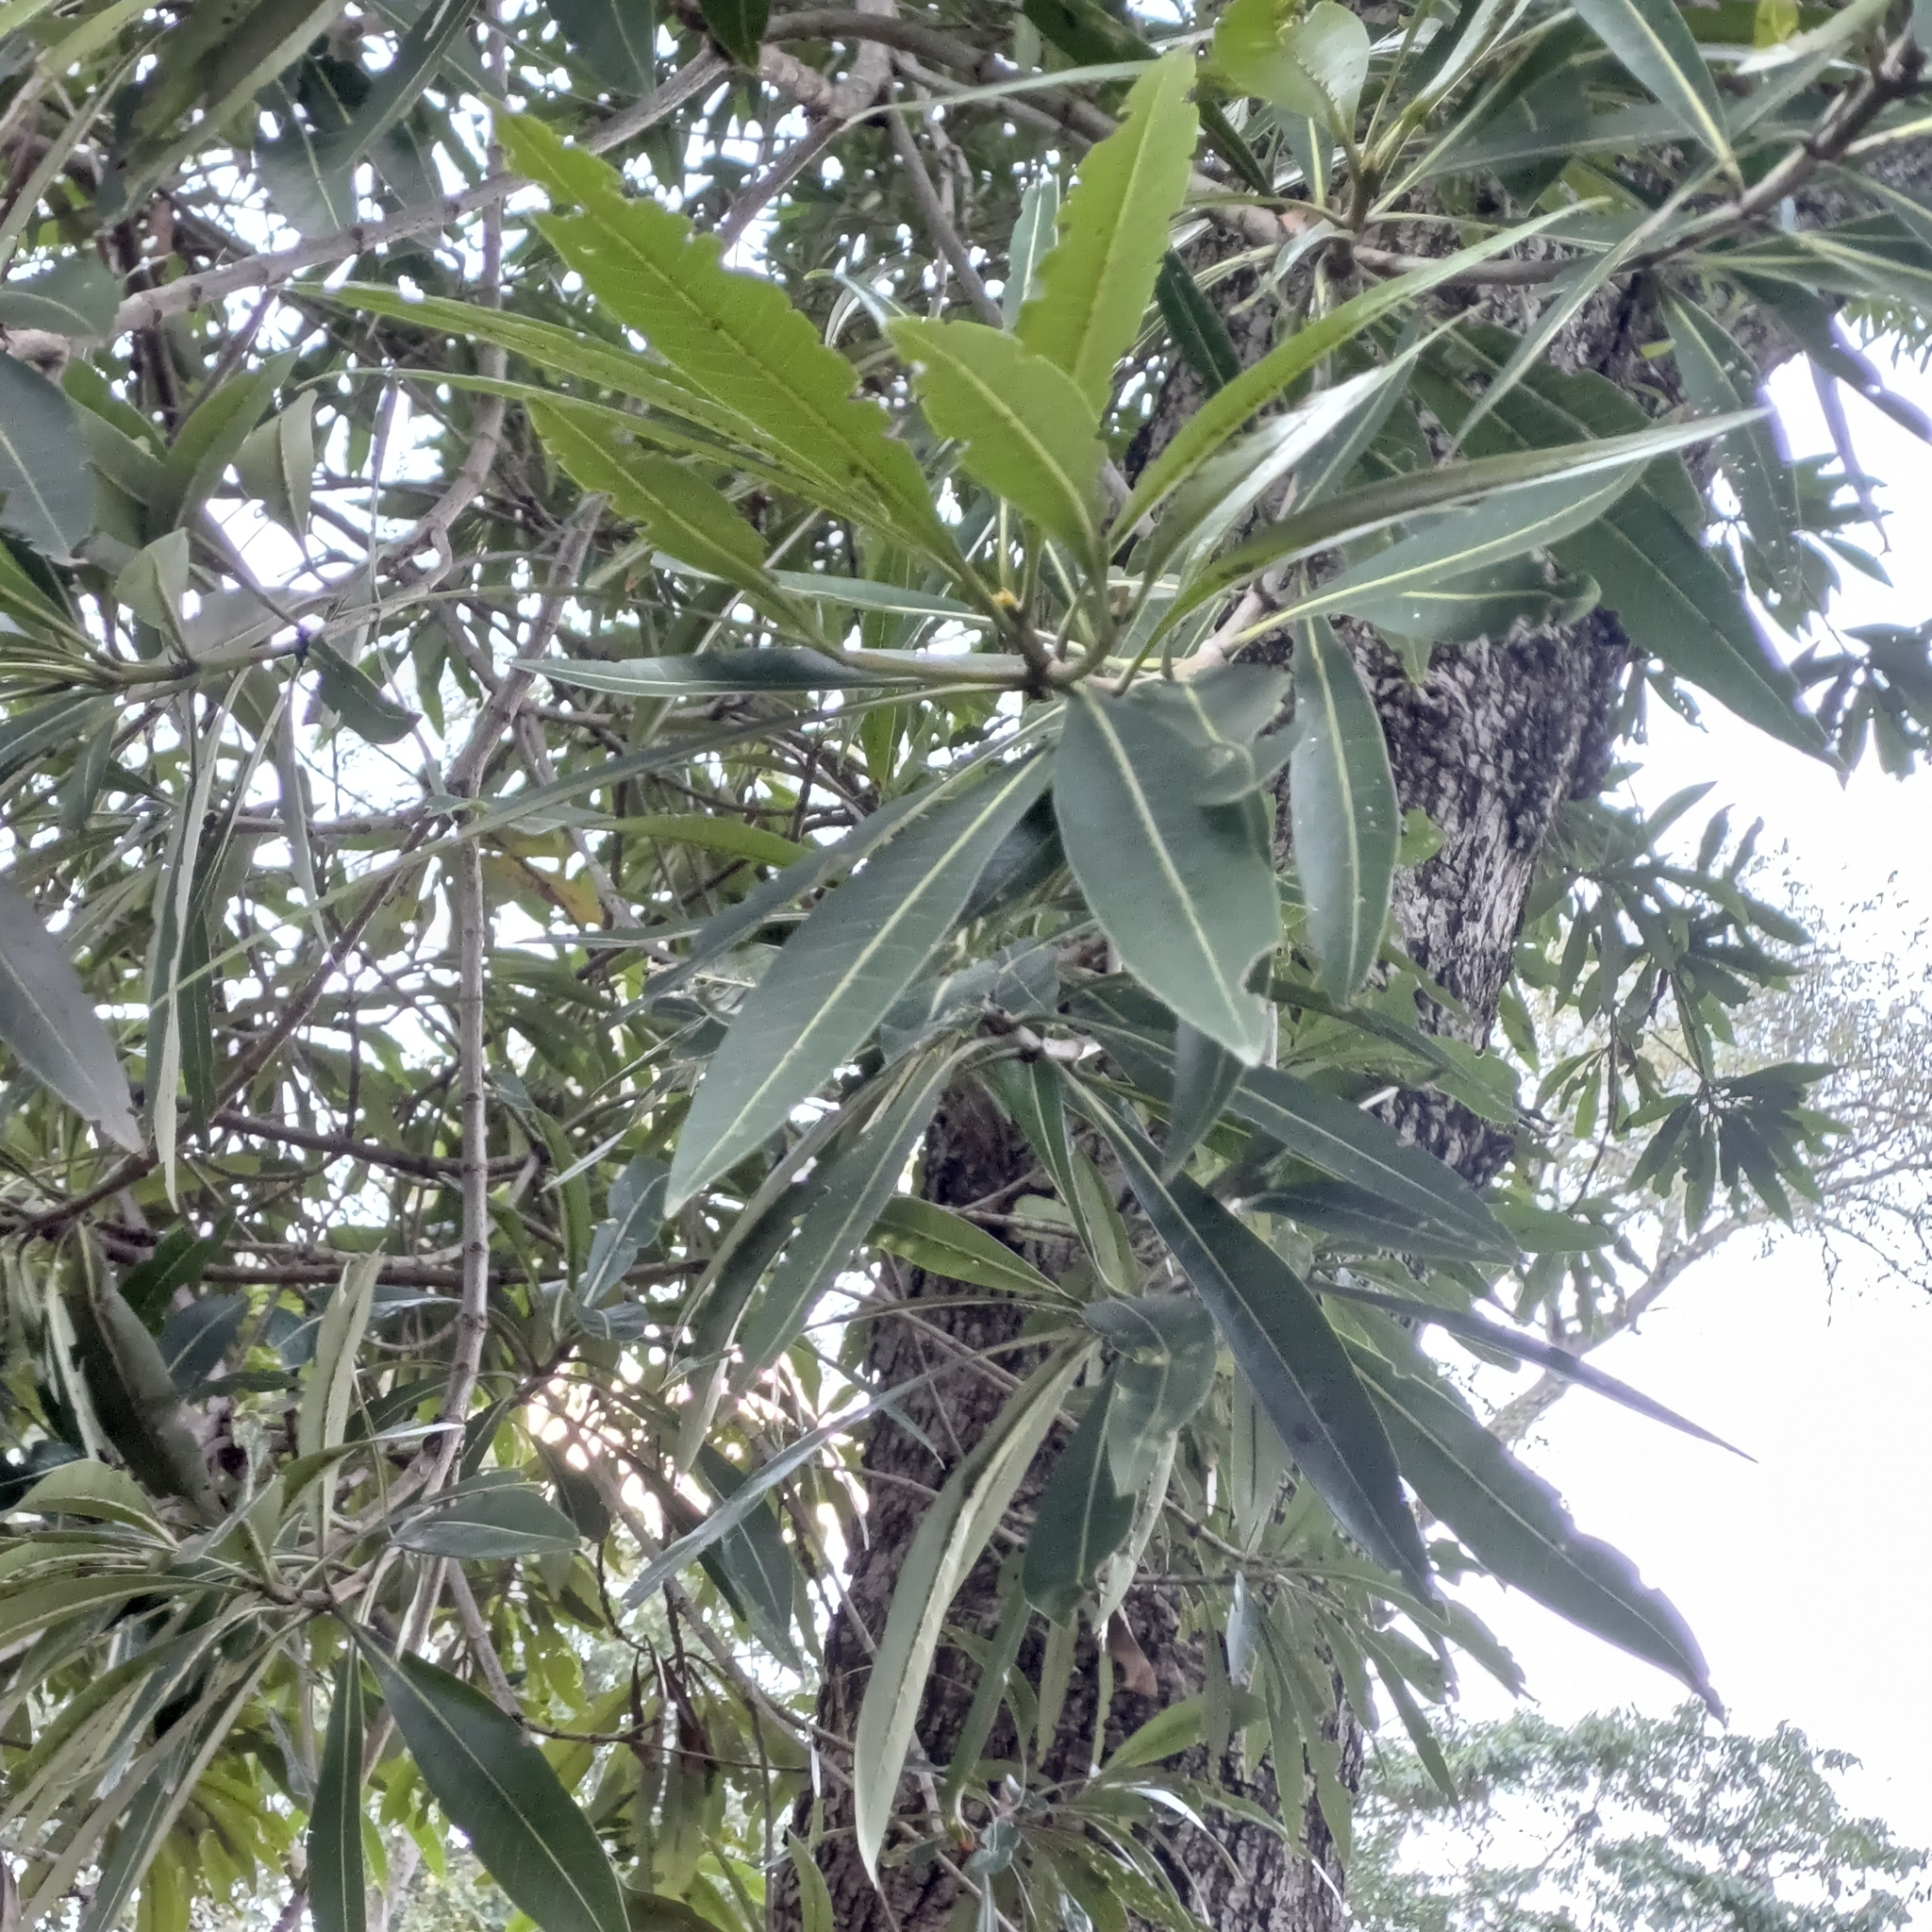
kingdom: Plantae
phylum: Tracheophyta
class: Magnoliopsida
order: Gentianales
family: Rubiaceae
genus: Breonadia
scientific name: Breonadia salicina
